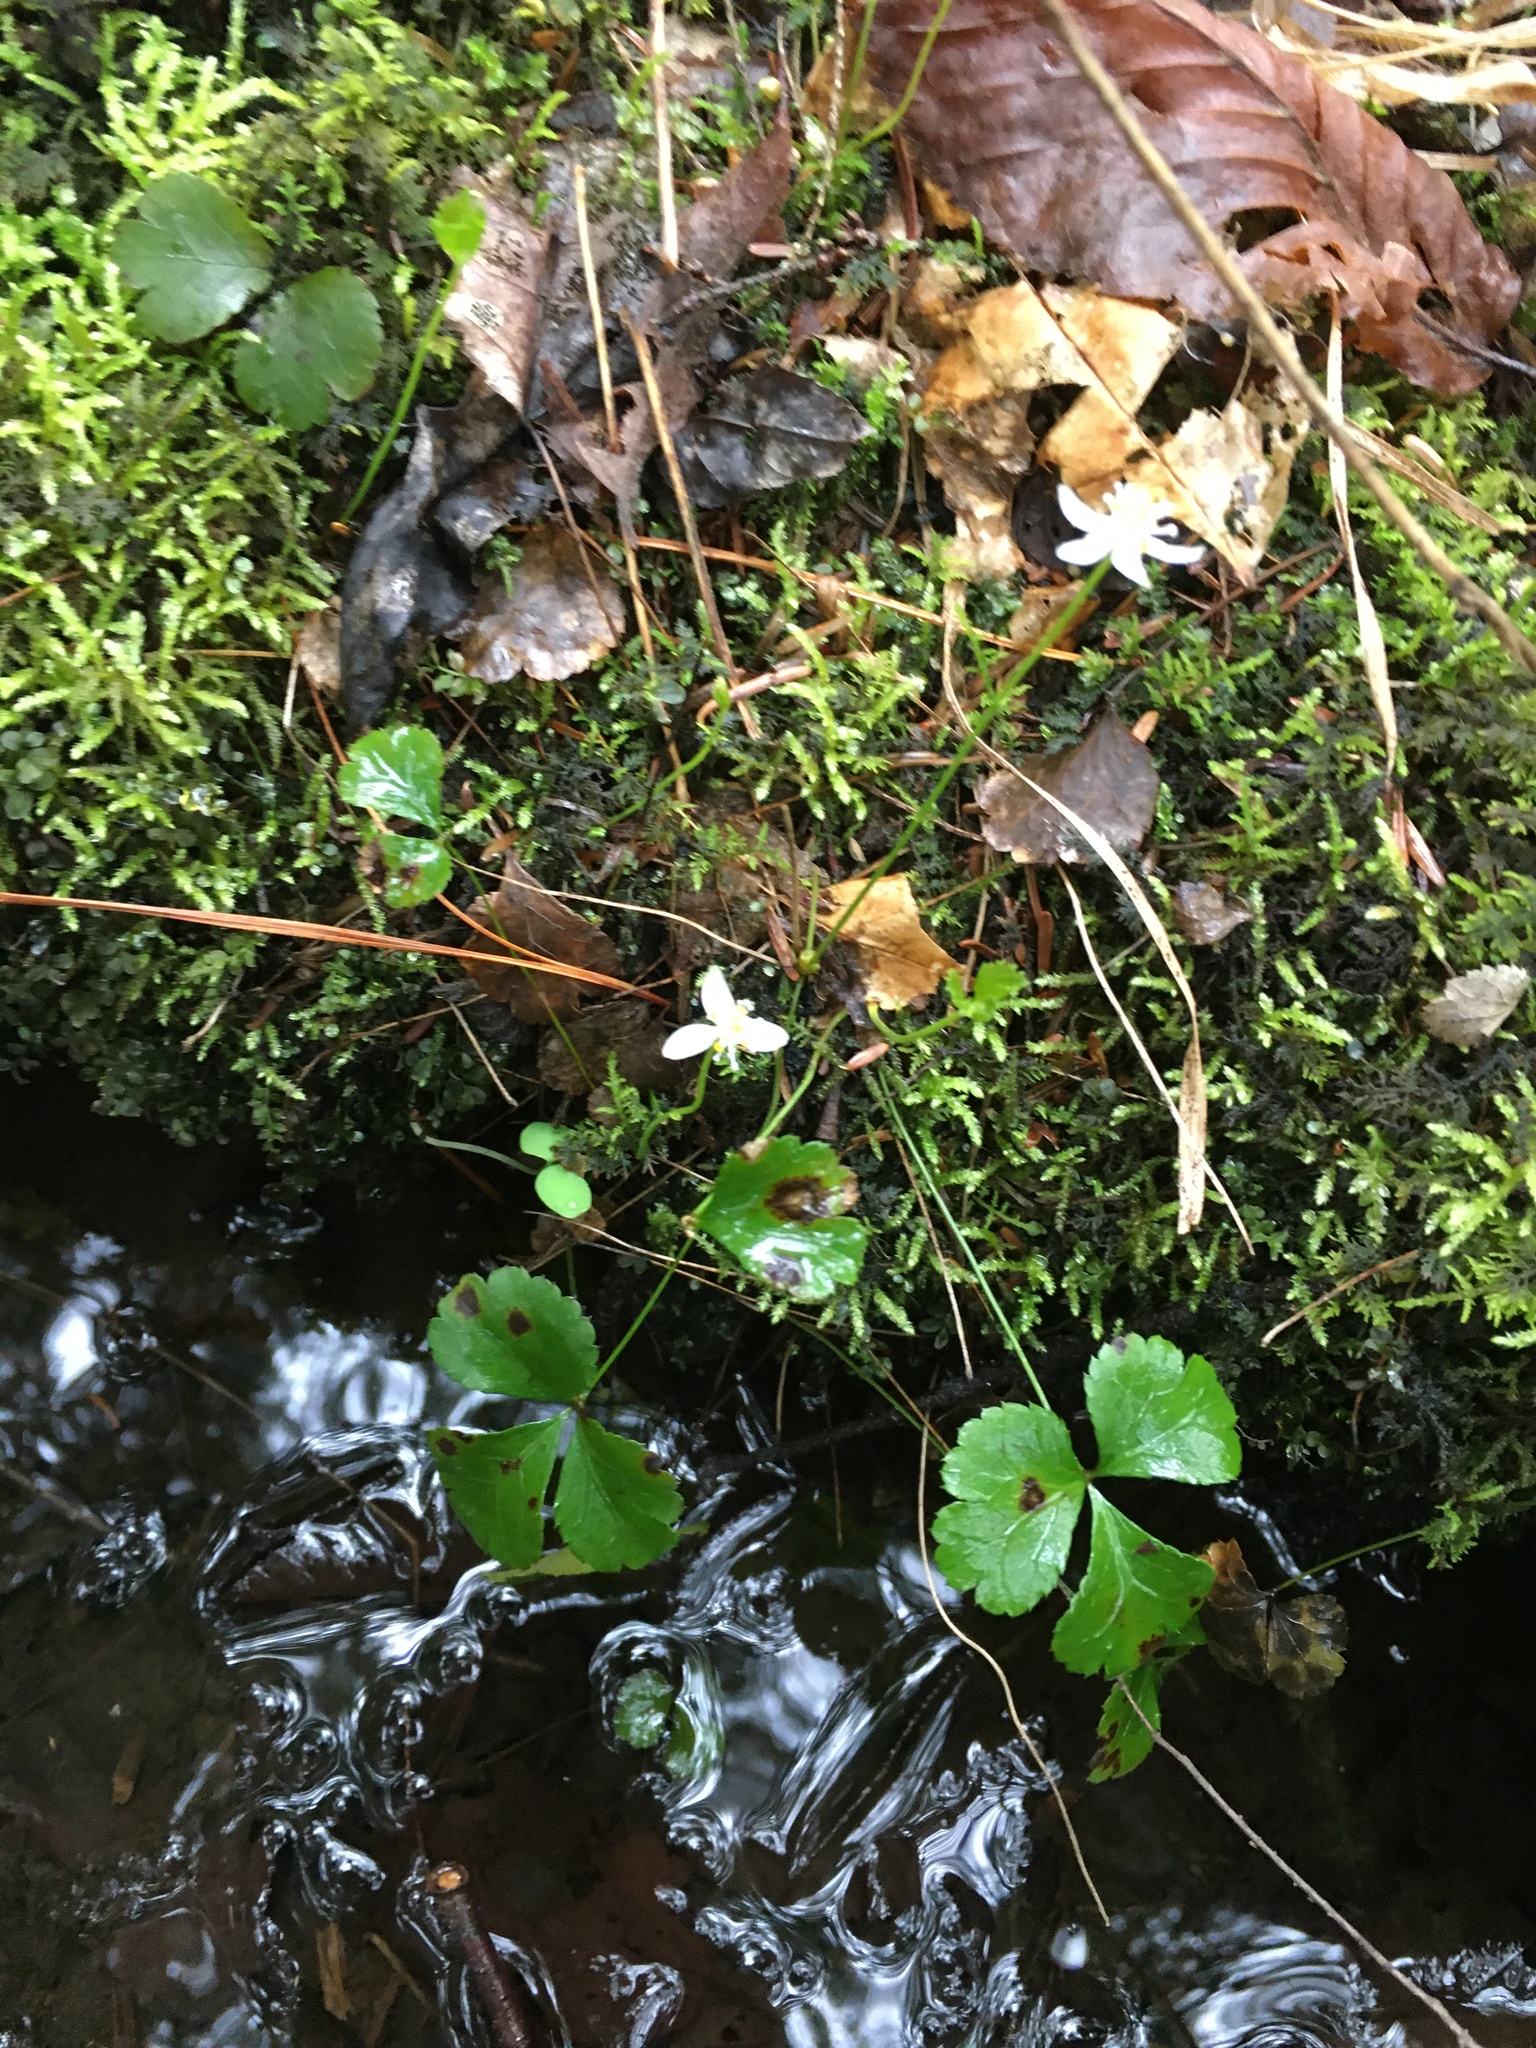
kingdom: Plantae
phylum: Tracheophyta
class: Magnoliopsida
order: Ranunculales
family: Ranunculaceae
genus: Coptis
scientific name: Coptis trifolia
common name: Canker-root
